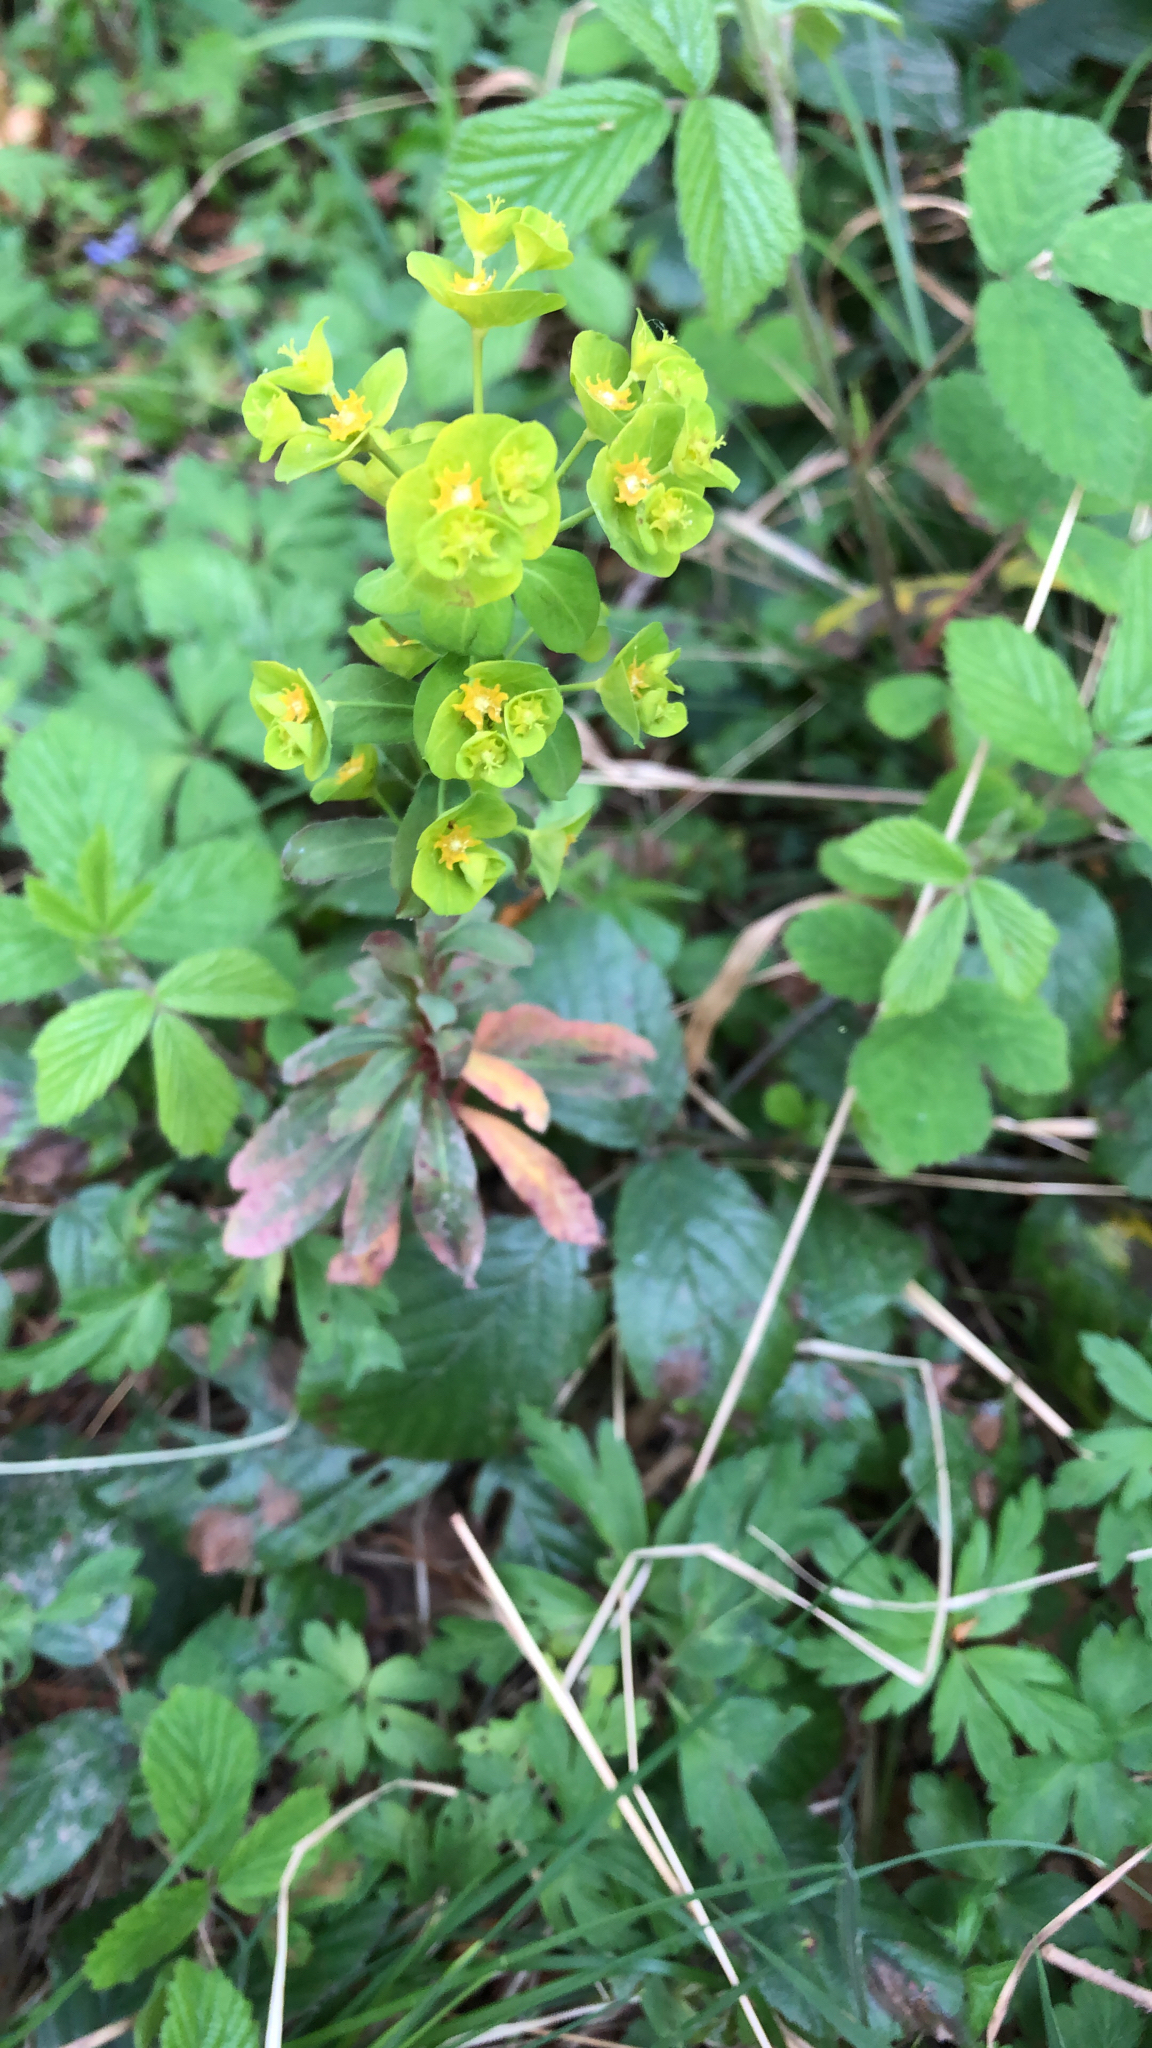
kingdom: Plantae
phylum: Tracheophyta
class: Magnoliopsida
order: Malpighiales
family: Euphorbiaceae
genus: Euphorbia
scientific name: Euphorbia amygdaloides
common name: Wood spurge
